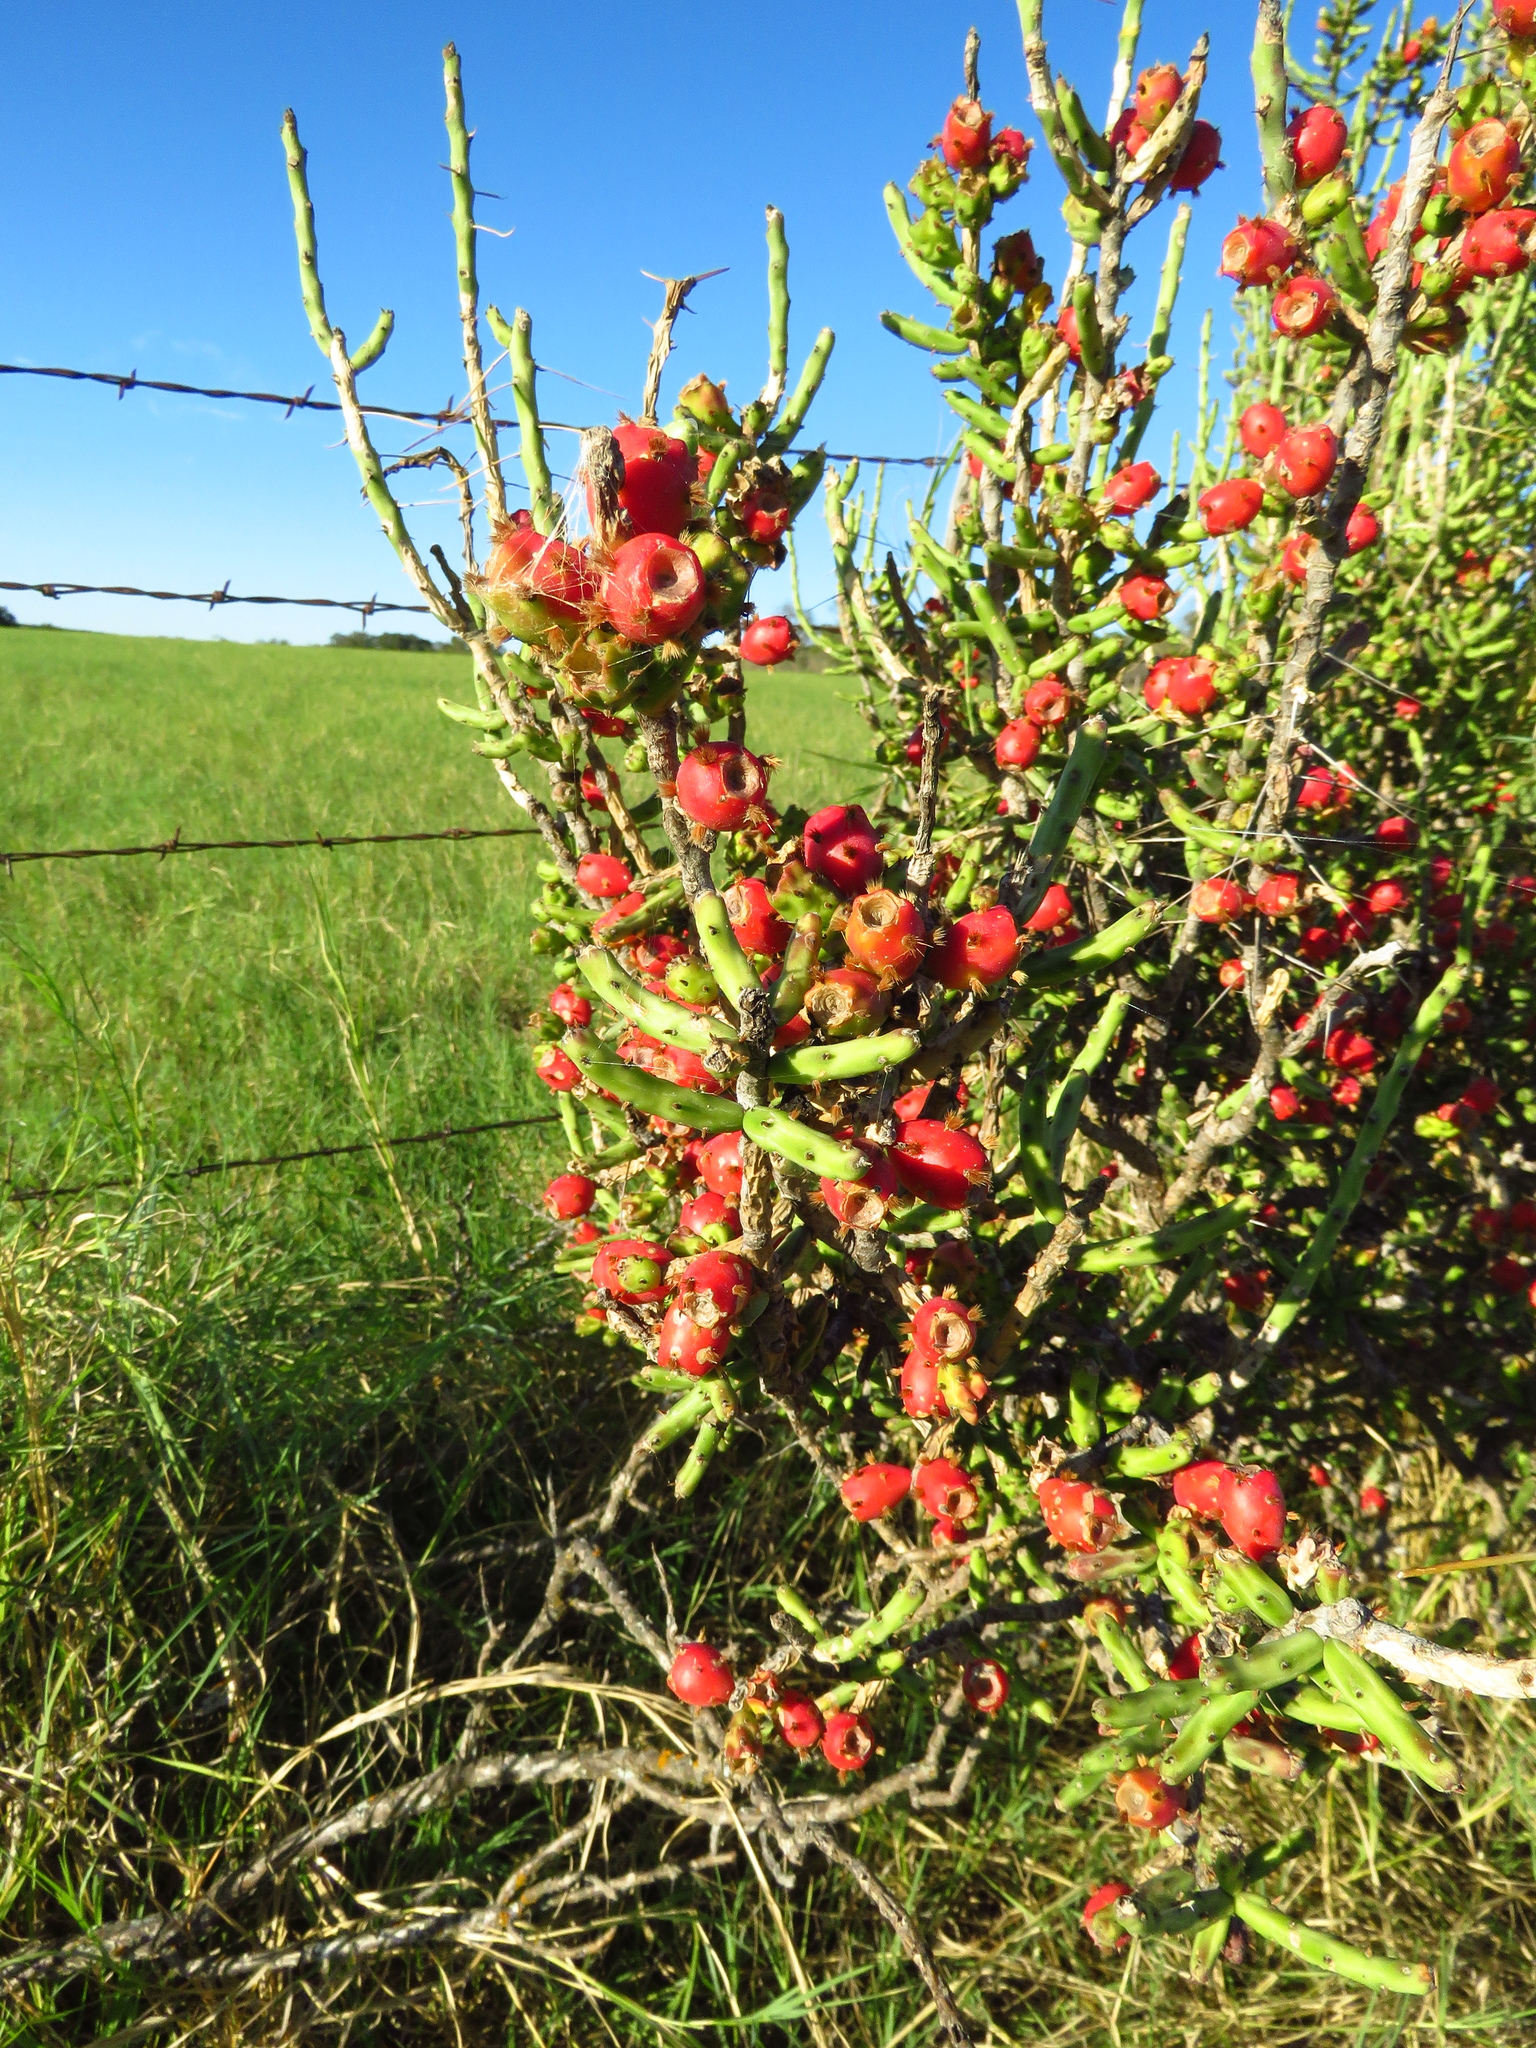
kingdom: Plantae
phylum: Tracheophyta
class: Magnoliopsida
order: Caryophyllales
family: Cactaceae
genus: Cylindropuntia
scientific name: Cylindropuntia leptocaulis
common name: Christmas cactus
